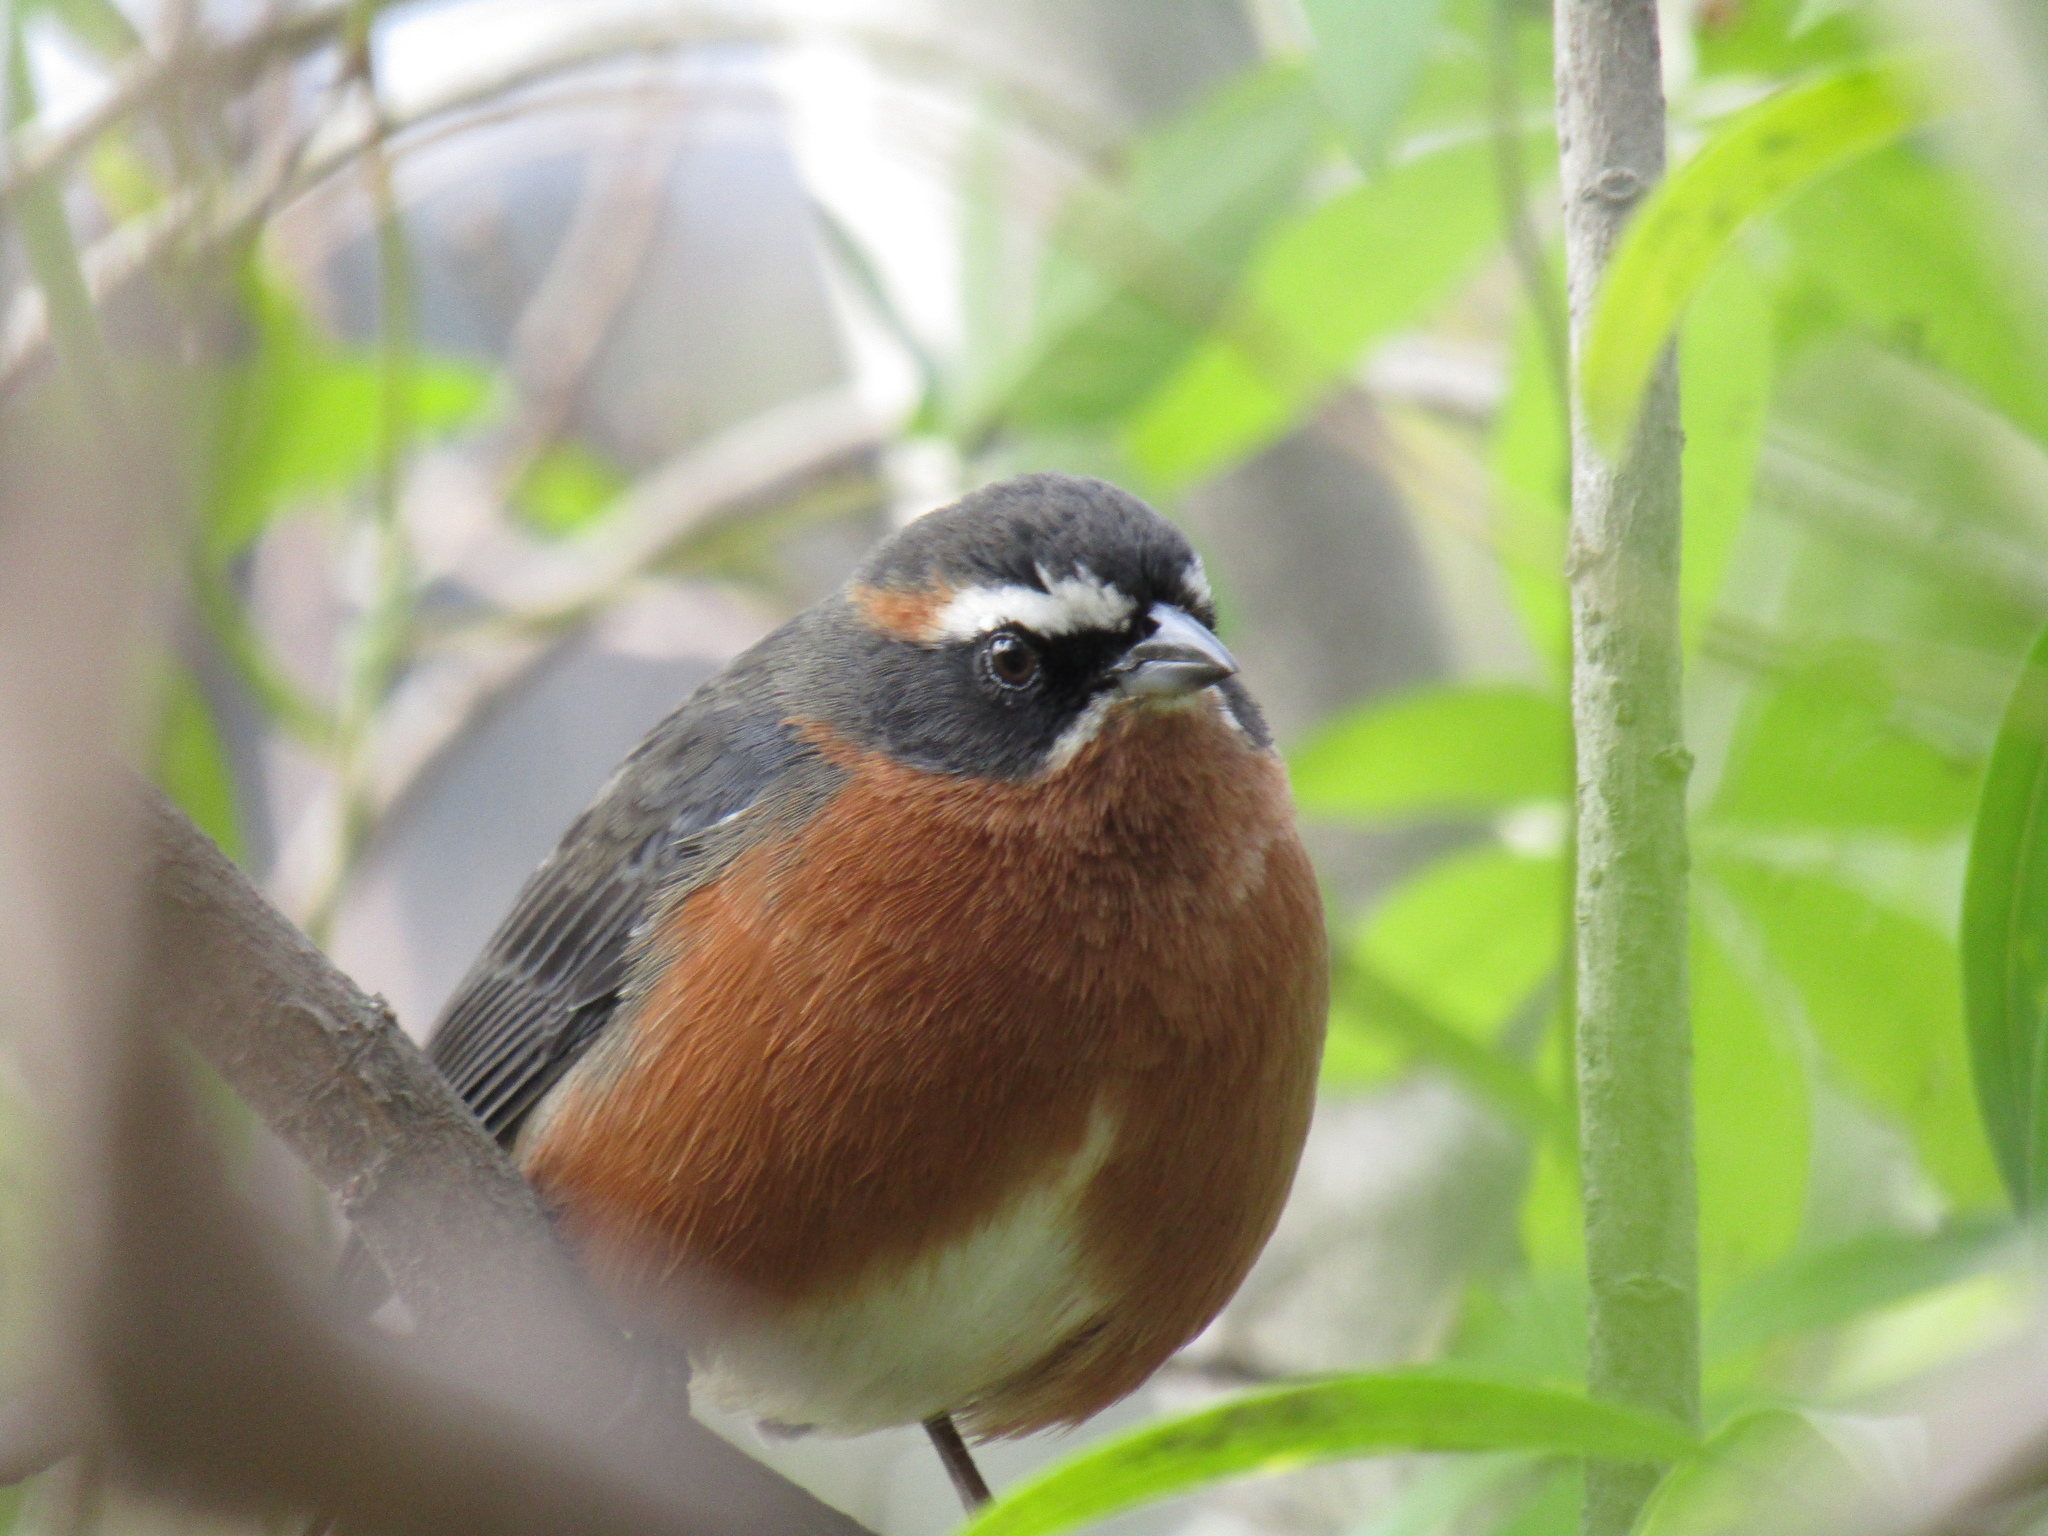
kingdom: Animalia
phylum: Chordata
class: Aves
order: Passeriformes
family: Thraupidae
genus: Poospiza
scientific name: Poospiza nigrorufa
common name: Black-and-rufous warbling finch
